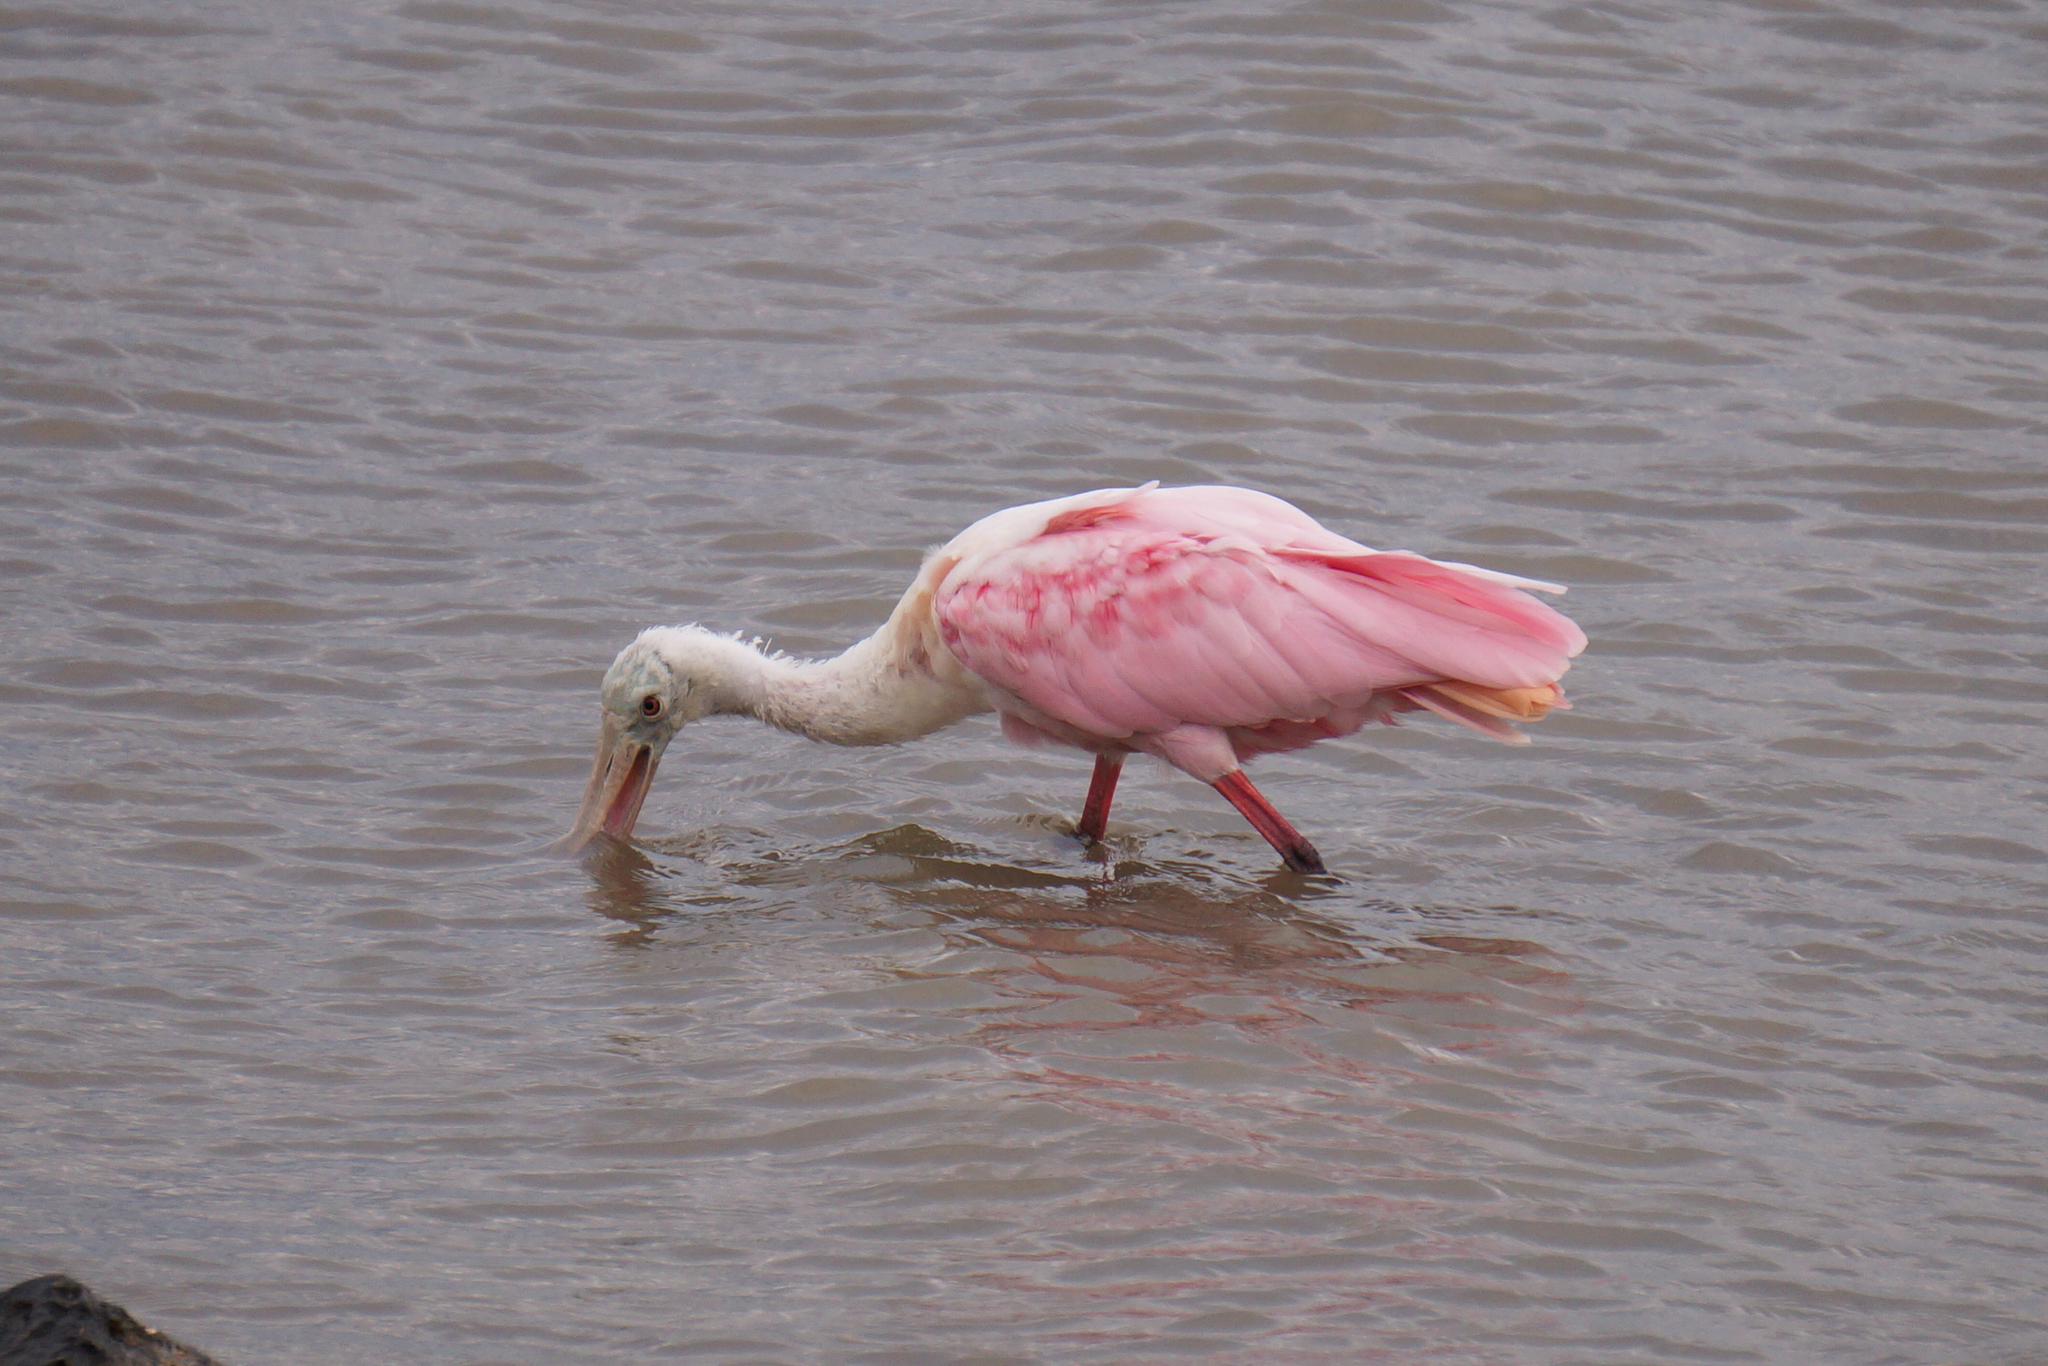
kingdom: Animalia
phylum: Chordata
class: Aves
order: Pelecaniformes
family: Threskiornithidae
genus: Platalea
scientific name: Platalea ajaja
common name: Roseate spoonbill
